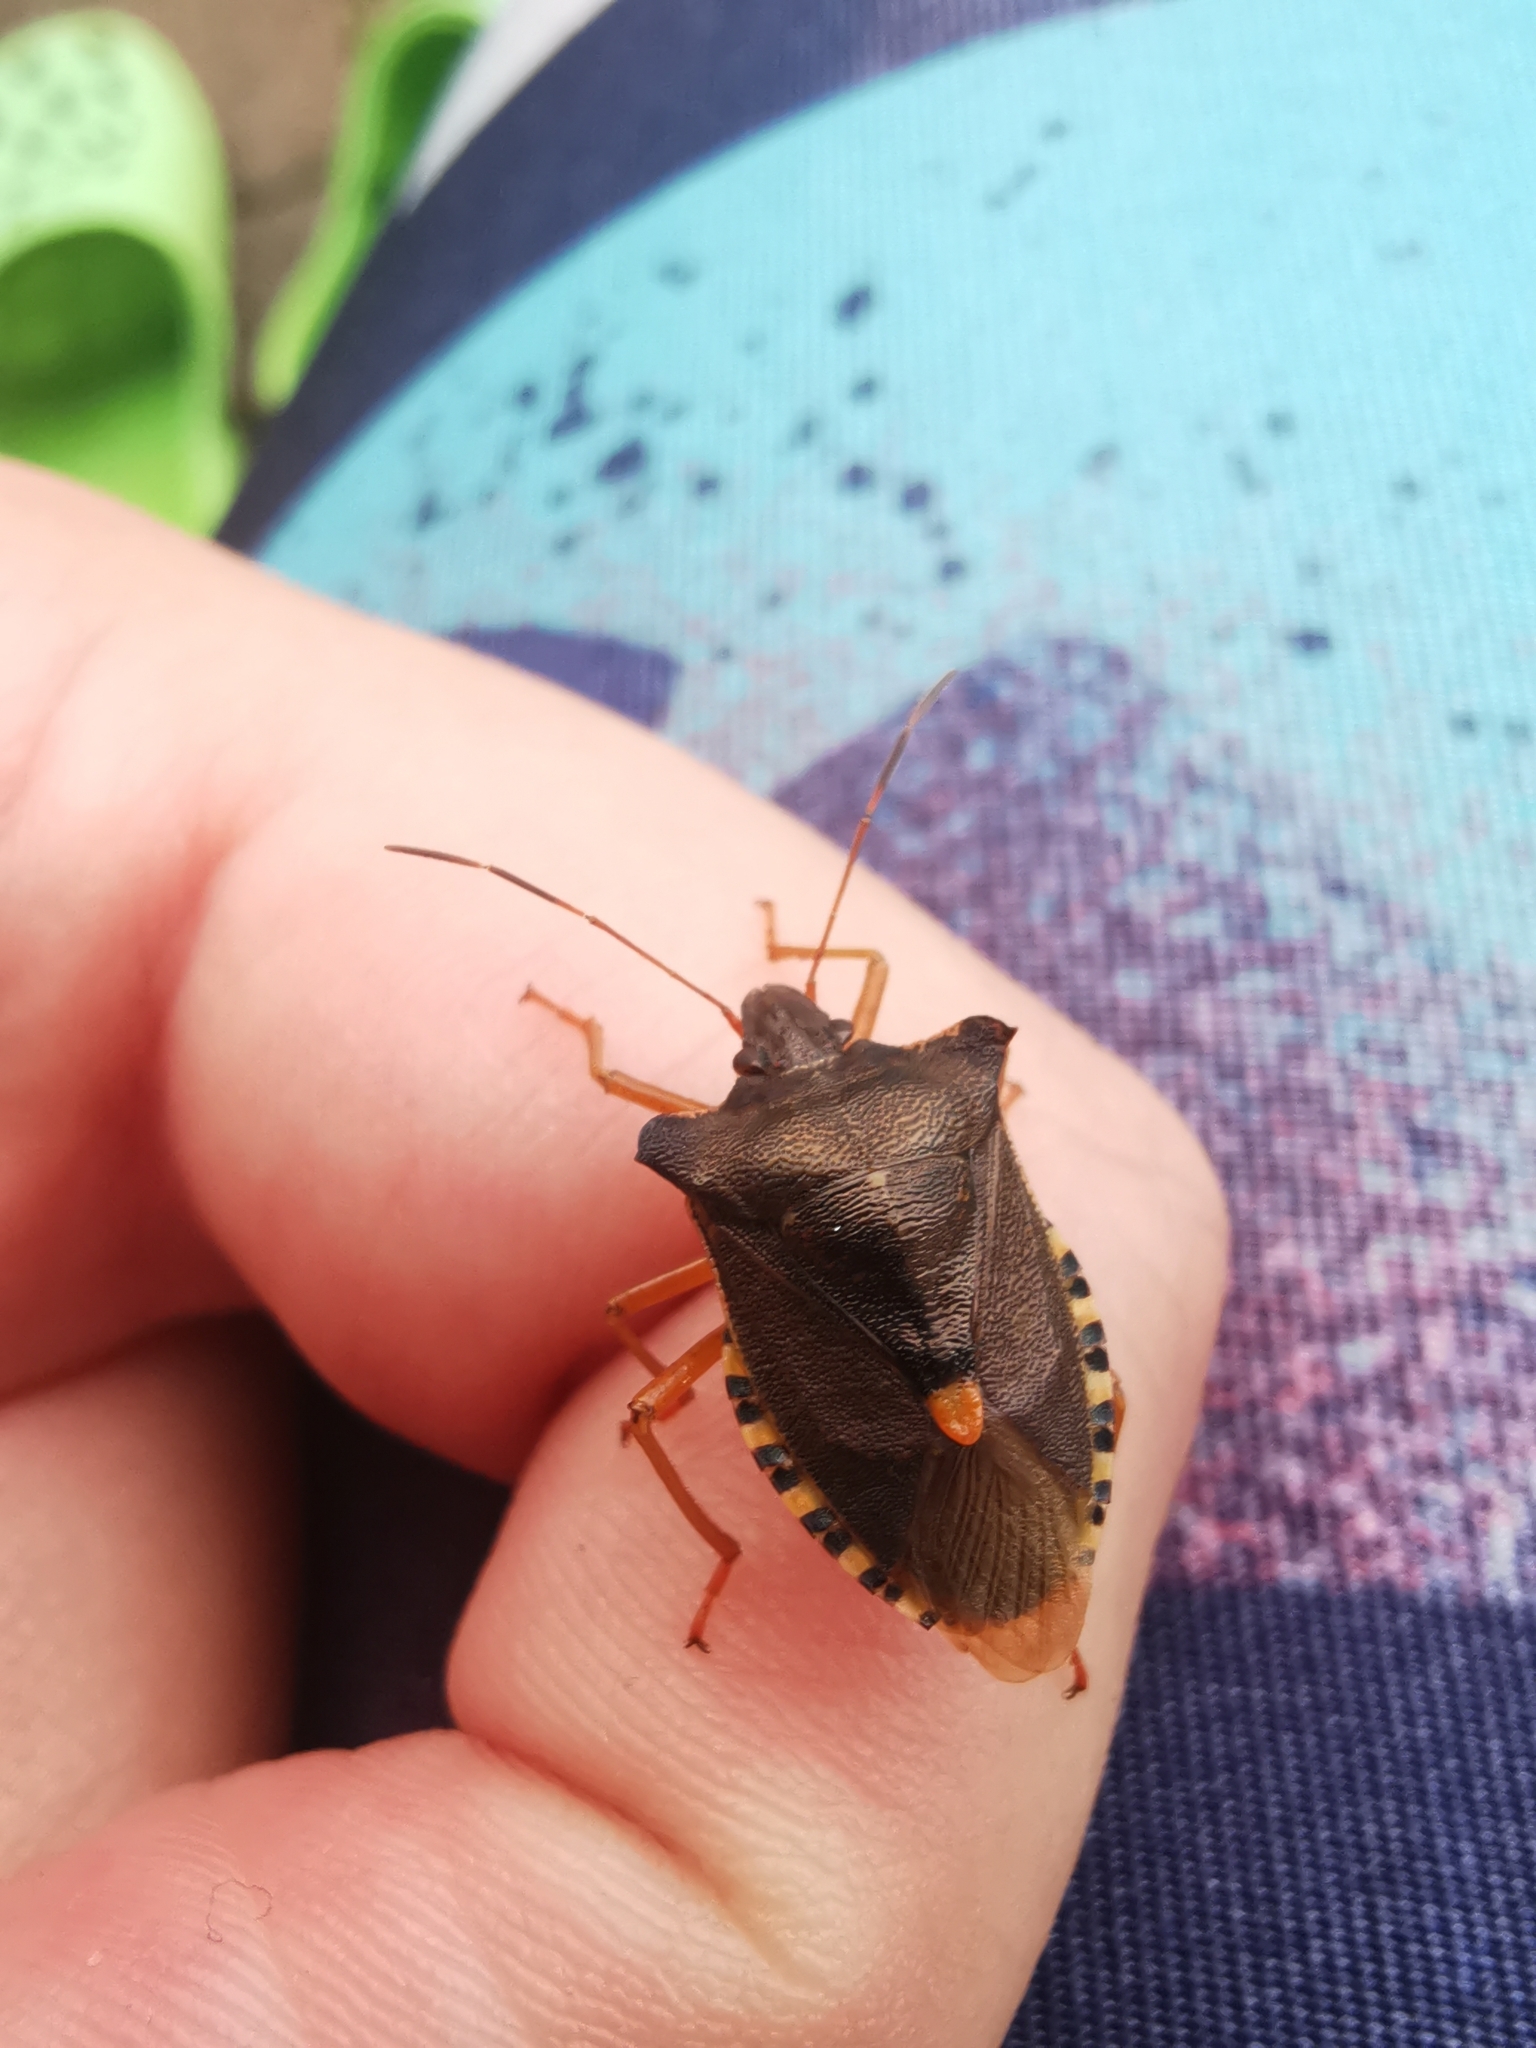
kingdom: Animalia
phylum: Arthropoda
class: Insecta
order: Hemiptera
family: Pentatomidae
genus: Pentatoma
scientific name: Pentatoma rufipes
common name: Forest bug
